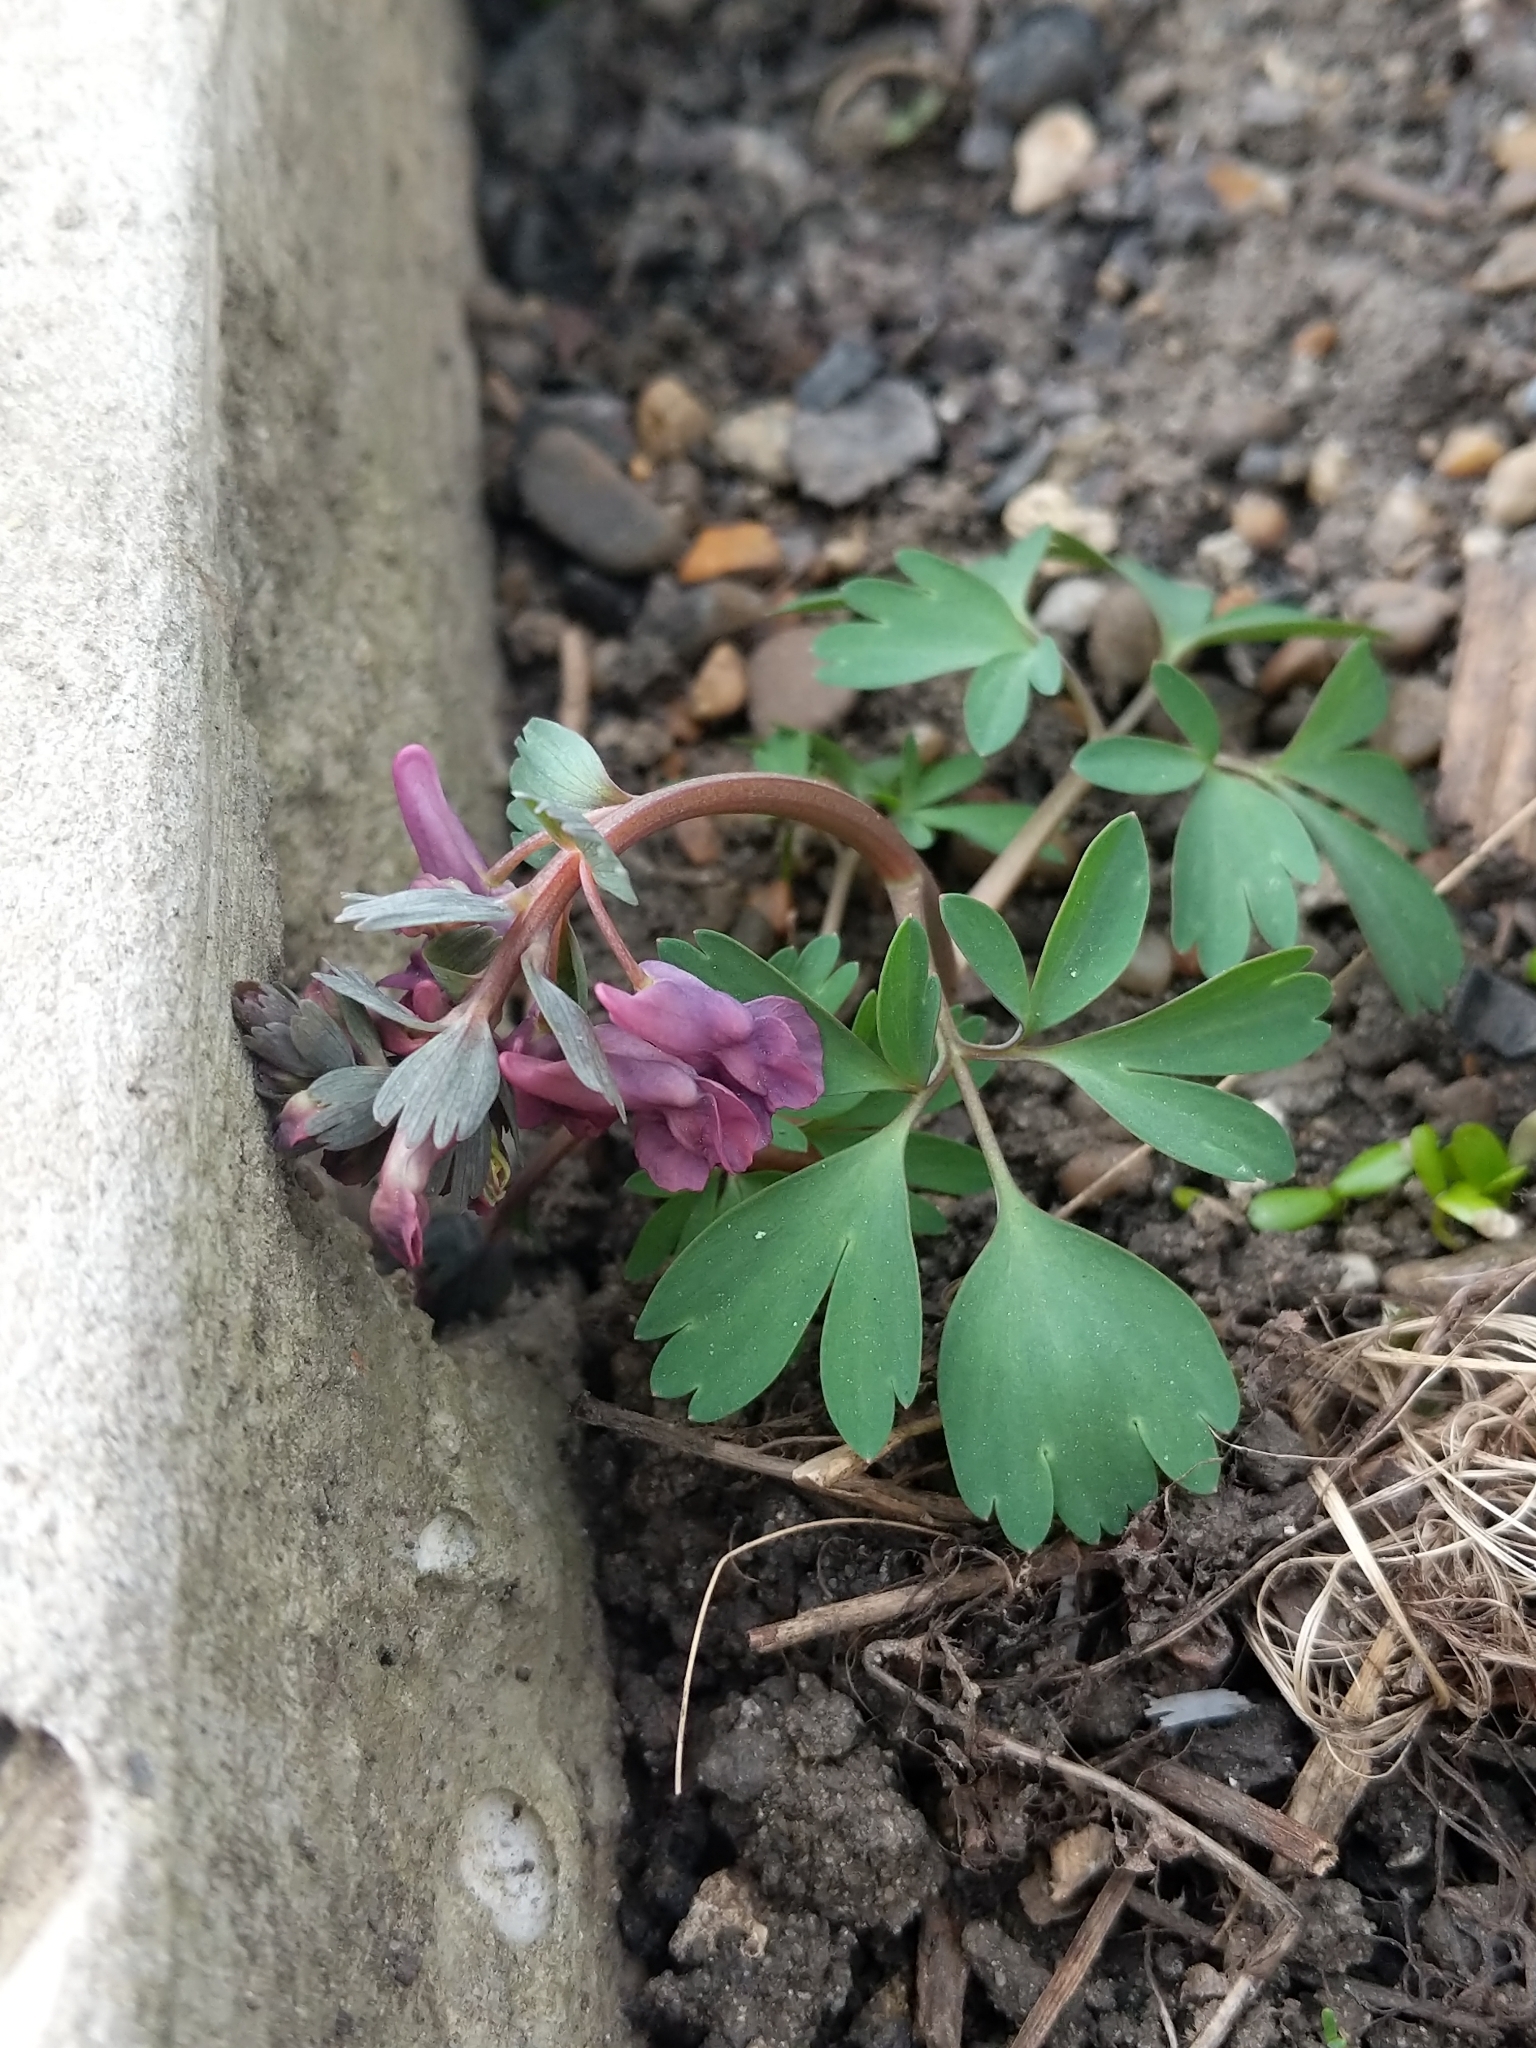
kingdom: Plantae
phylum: Tracheophyta
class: Magnoliopsida
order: Ranunculales
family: Papaveraceae
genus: Corydalis
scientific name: Corydalis solida
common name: Bird-in-a-bush
